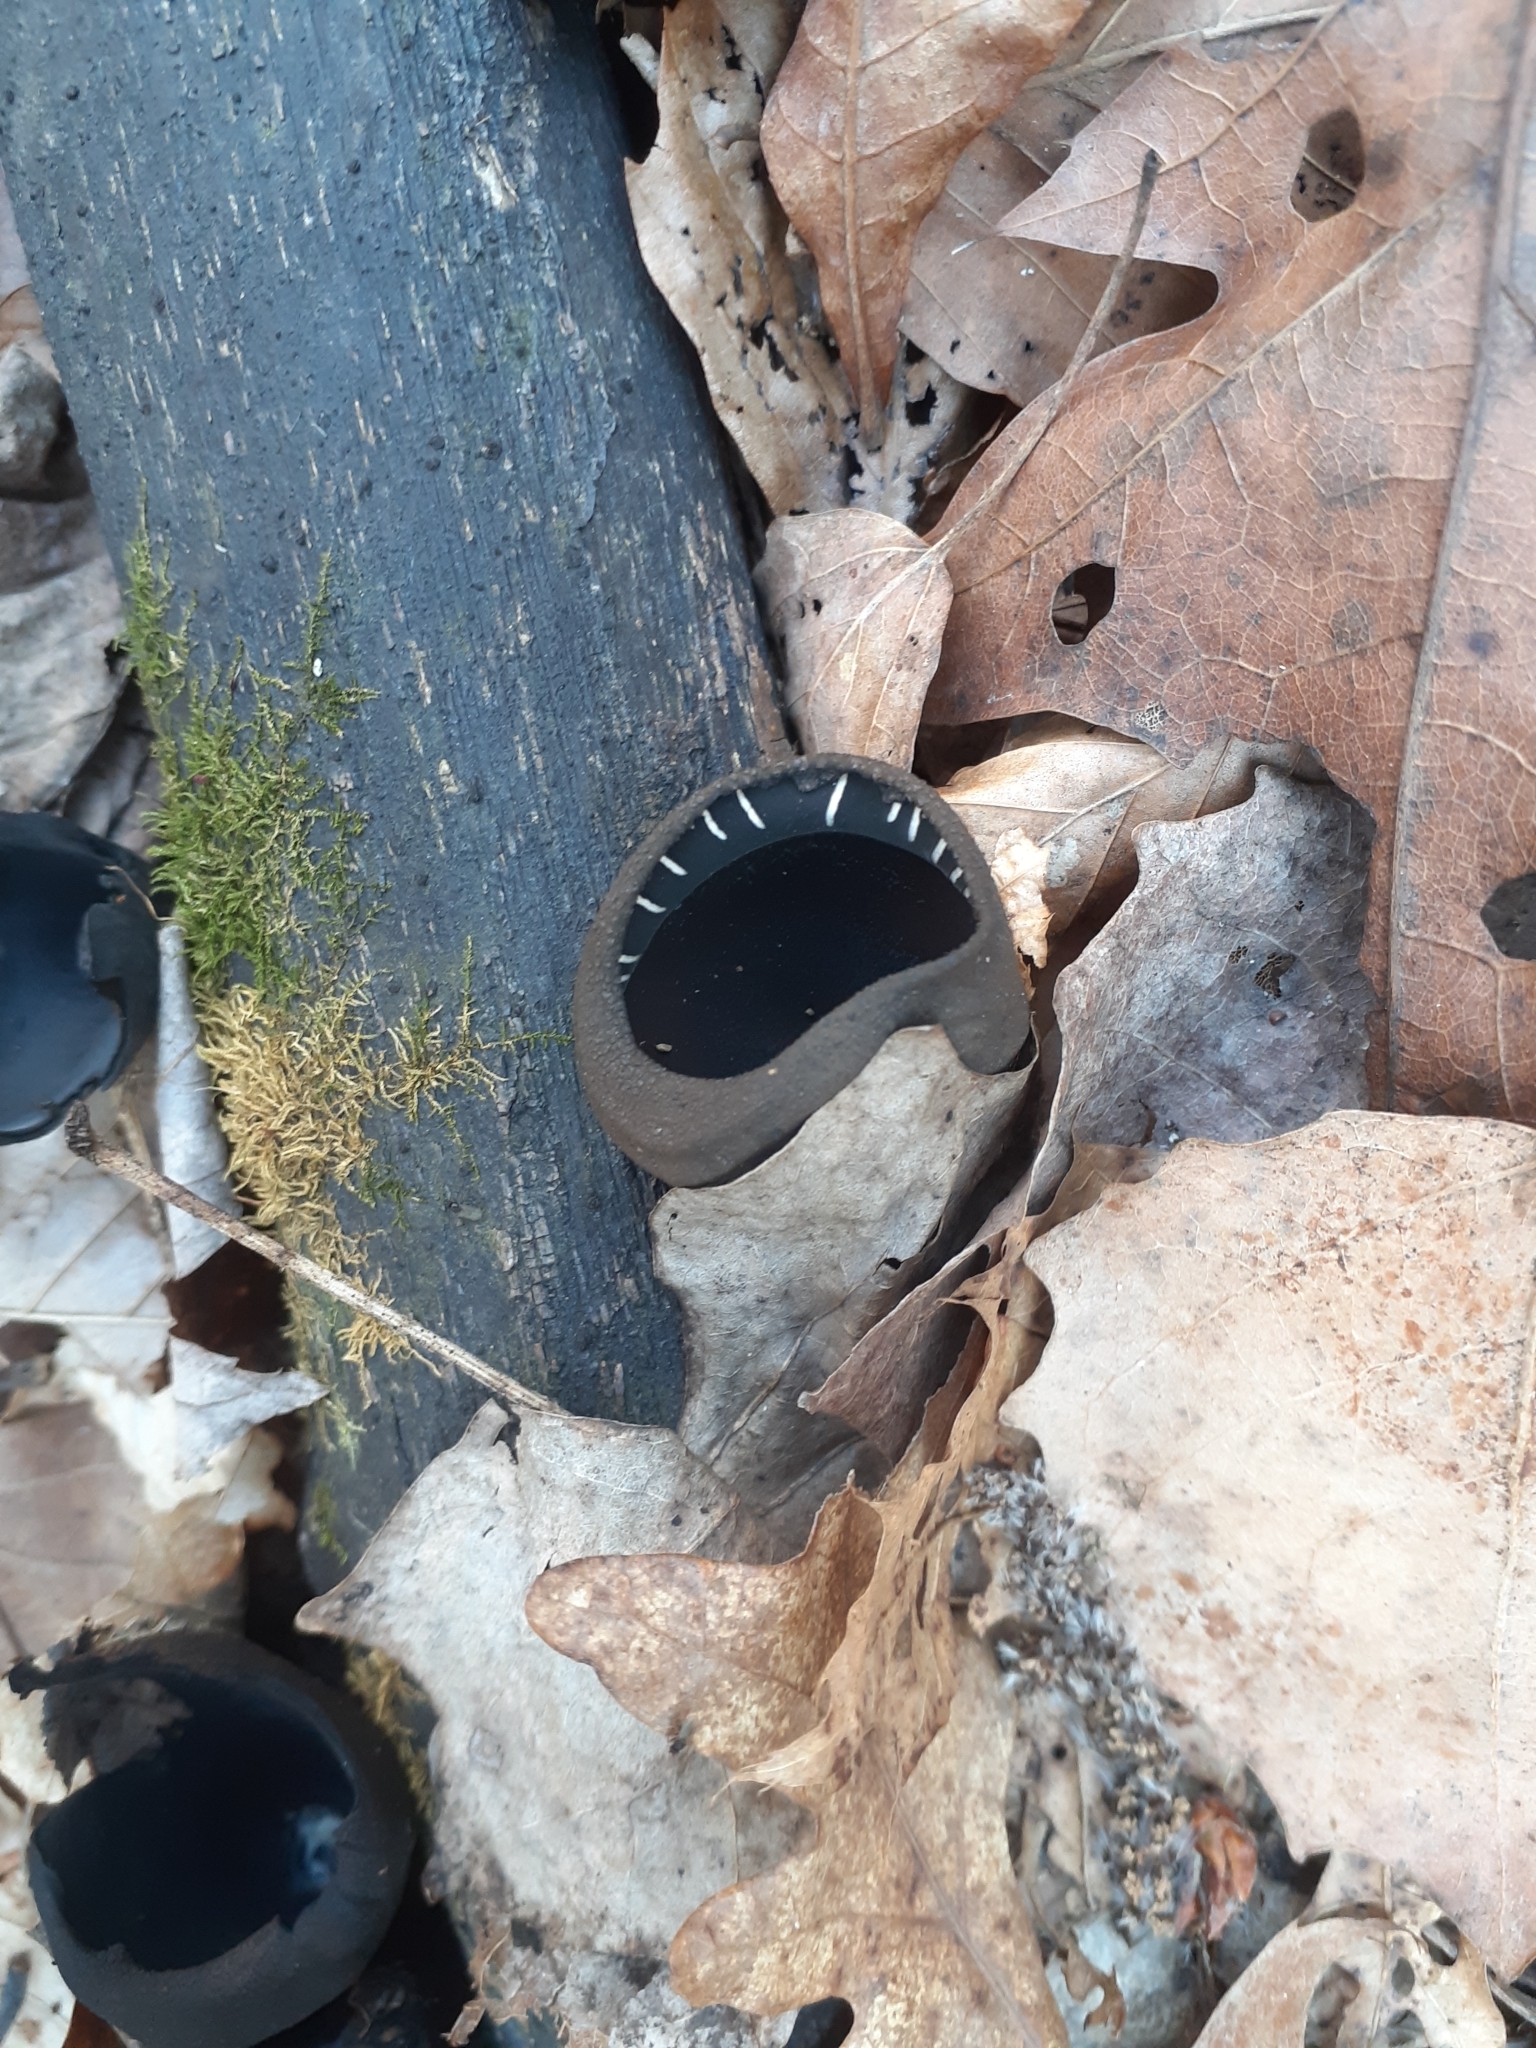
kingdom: Fungi
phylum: Ascomycota
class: Pezizomycetes
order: Pezizales
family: Sarcosomataceae
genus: Urnula
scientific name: Urnula craterium
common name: Devil's urn
